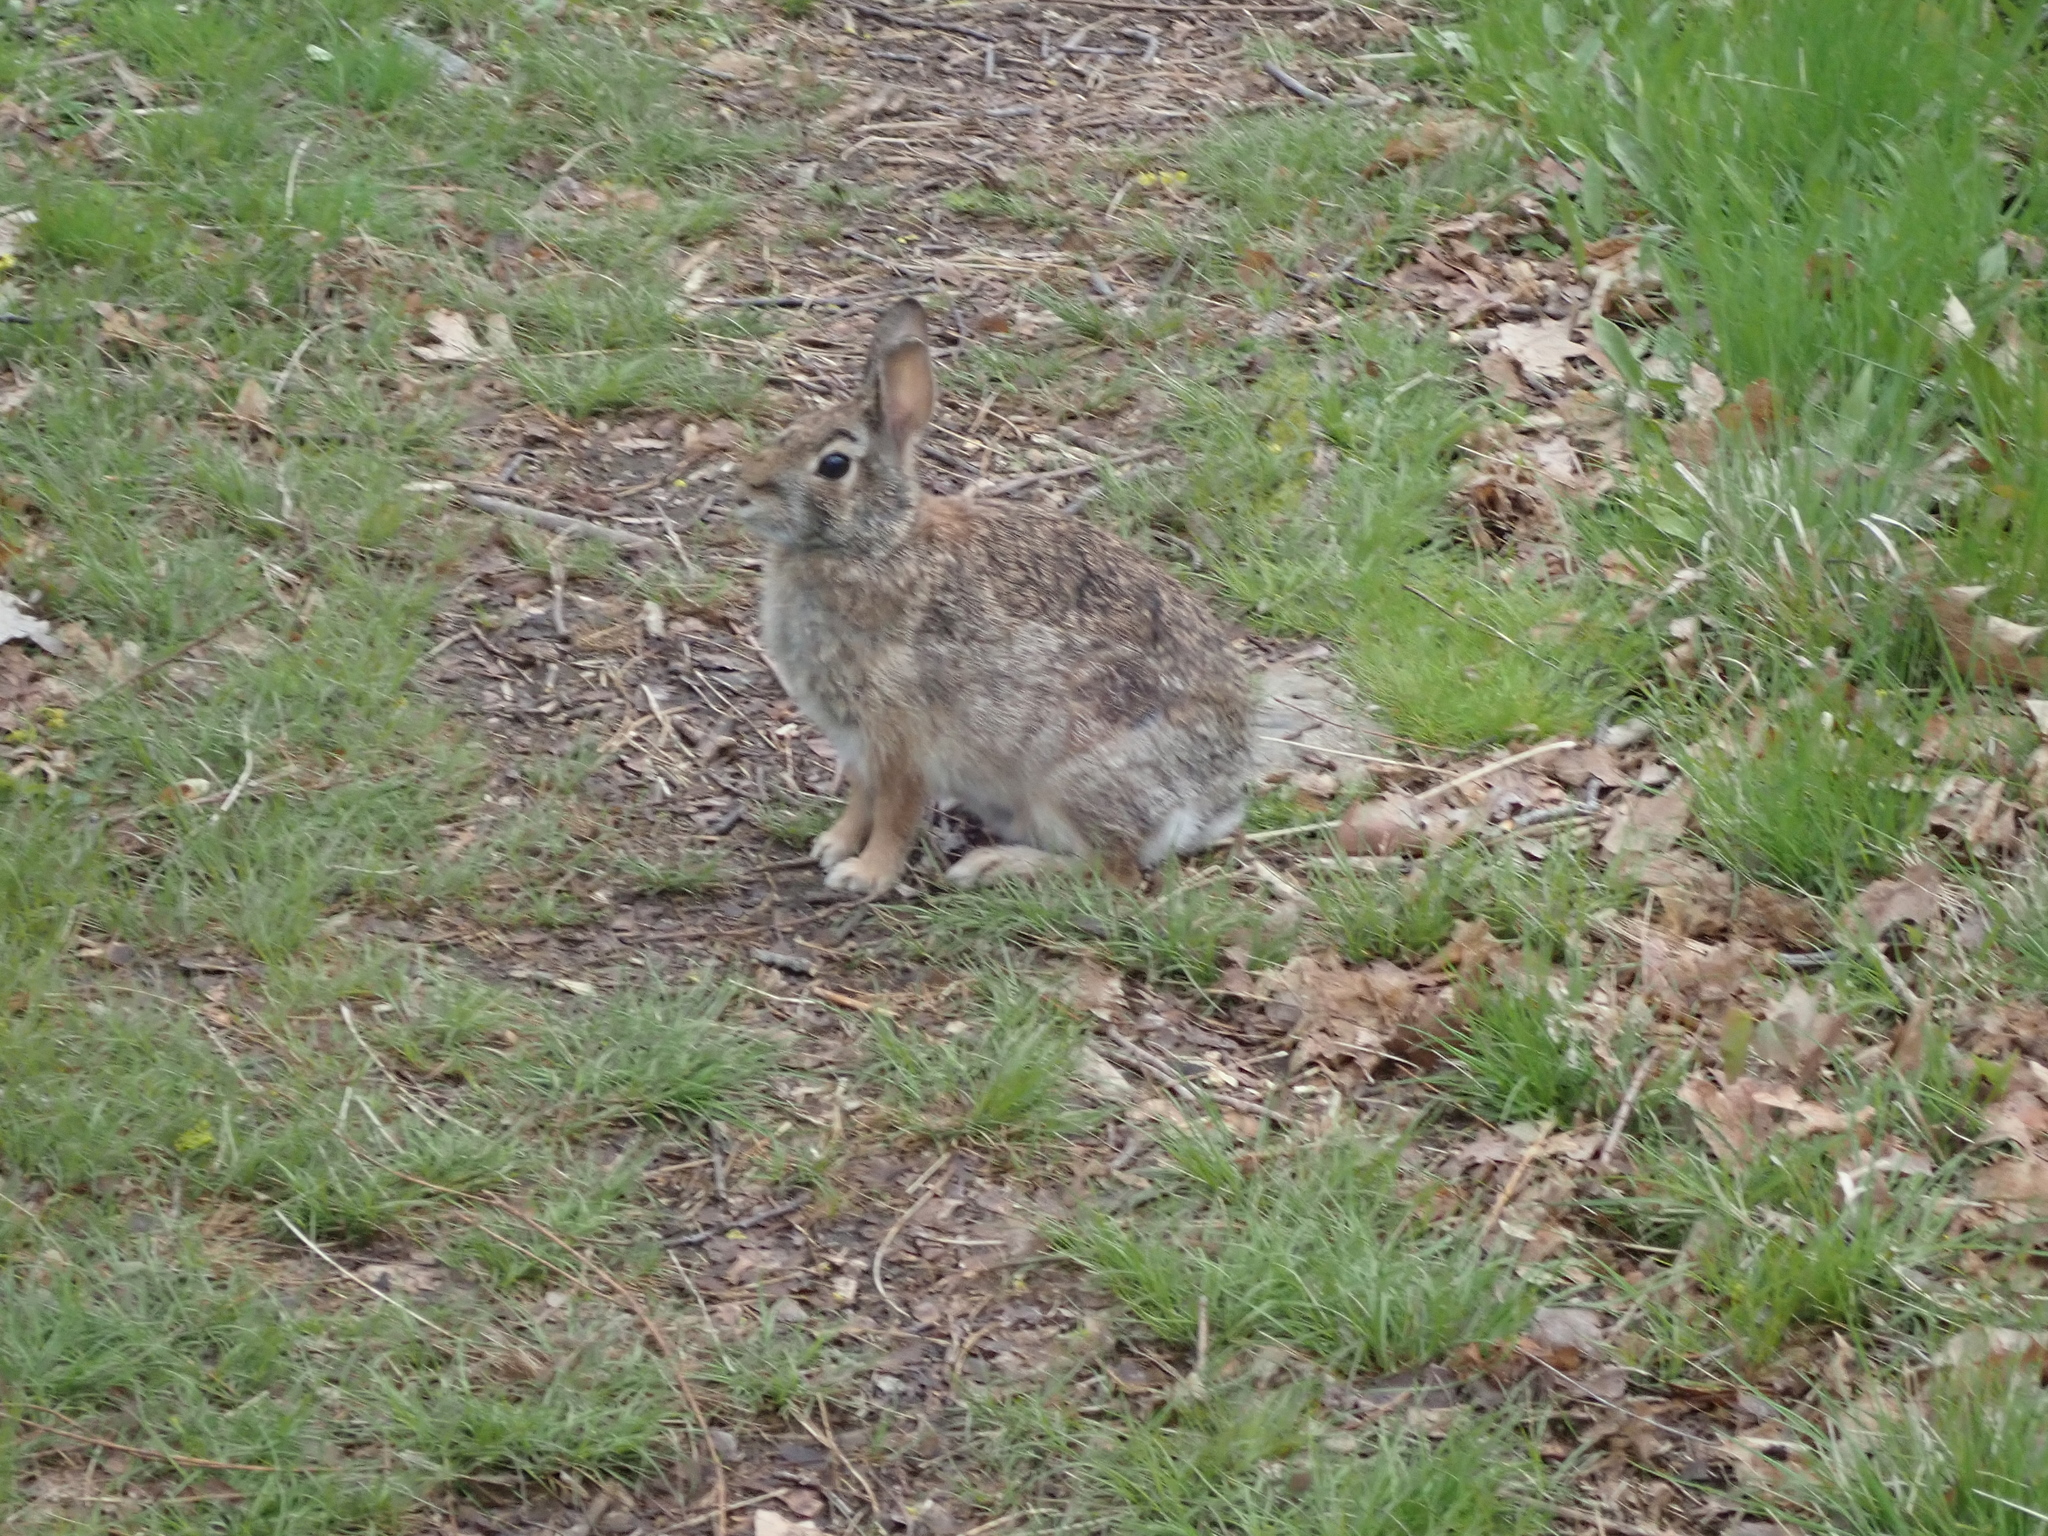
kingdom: Animalia
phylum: Chordata
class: Mammalia
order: Lagomorpha
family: Leporidae
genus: Sylvilagus
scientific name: Sylvilagus floridanus
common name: Eastern cottontail
